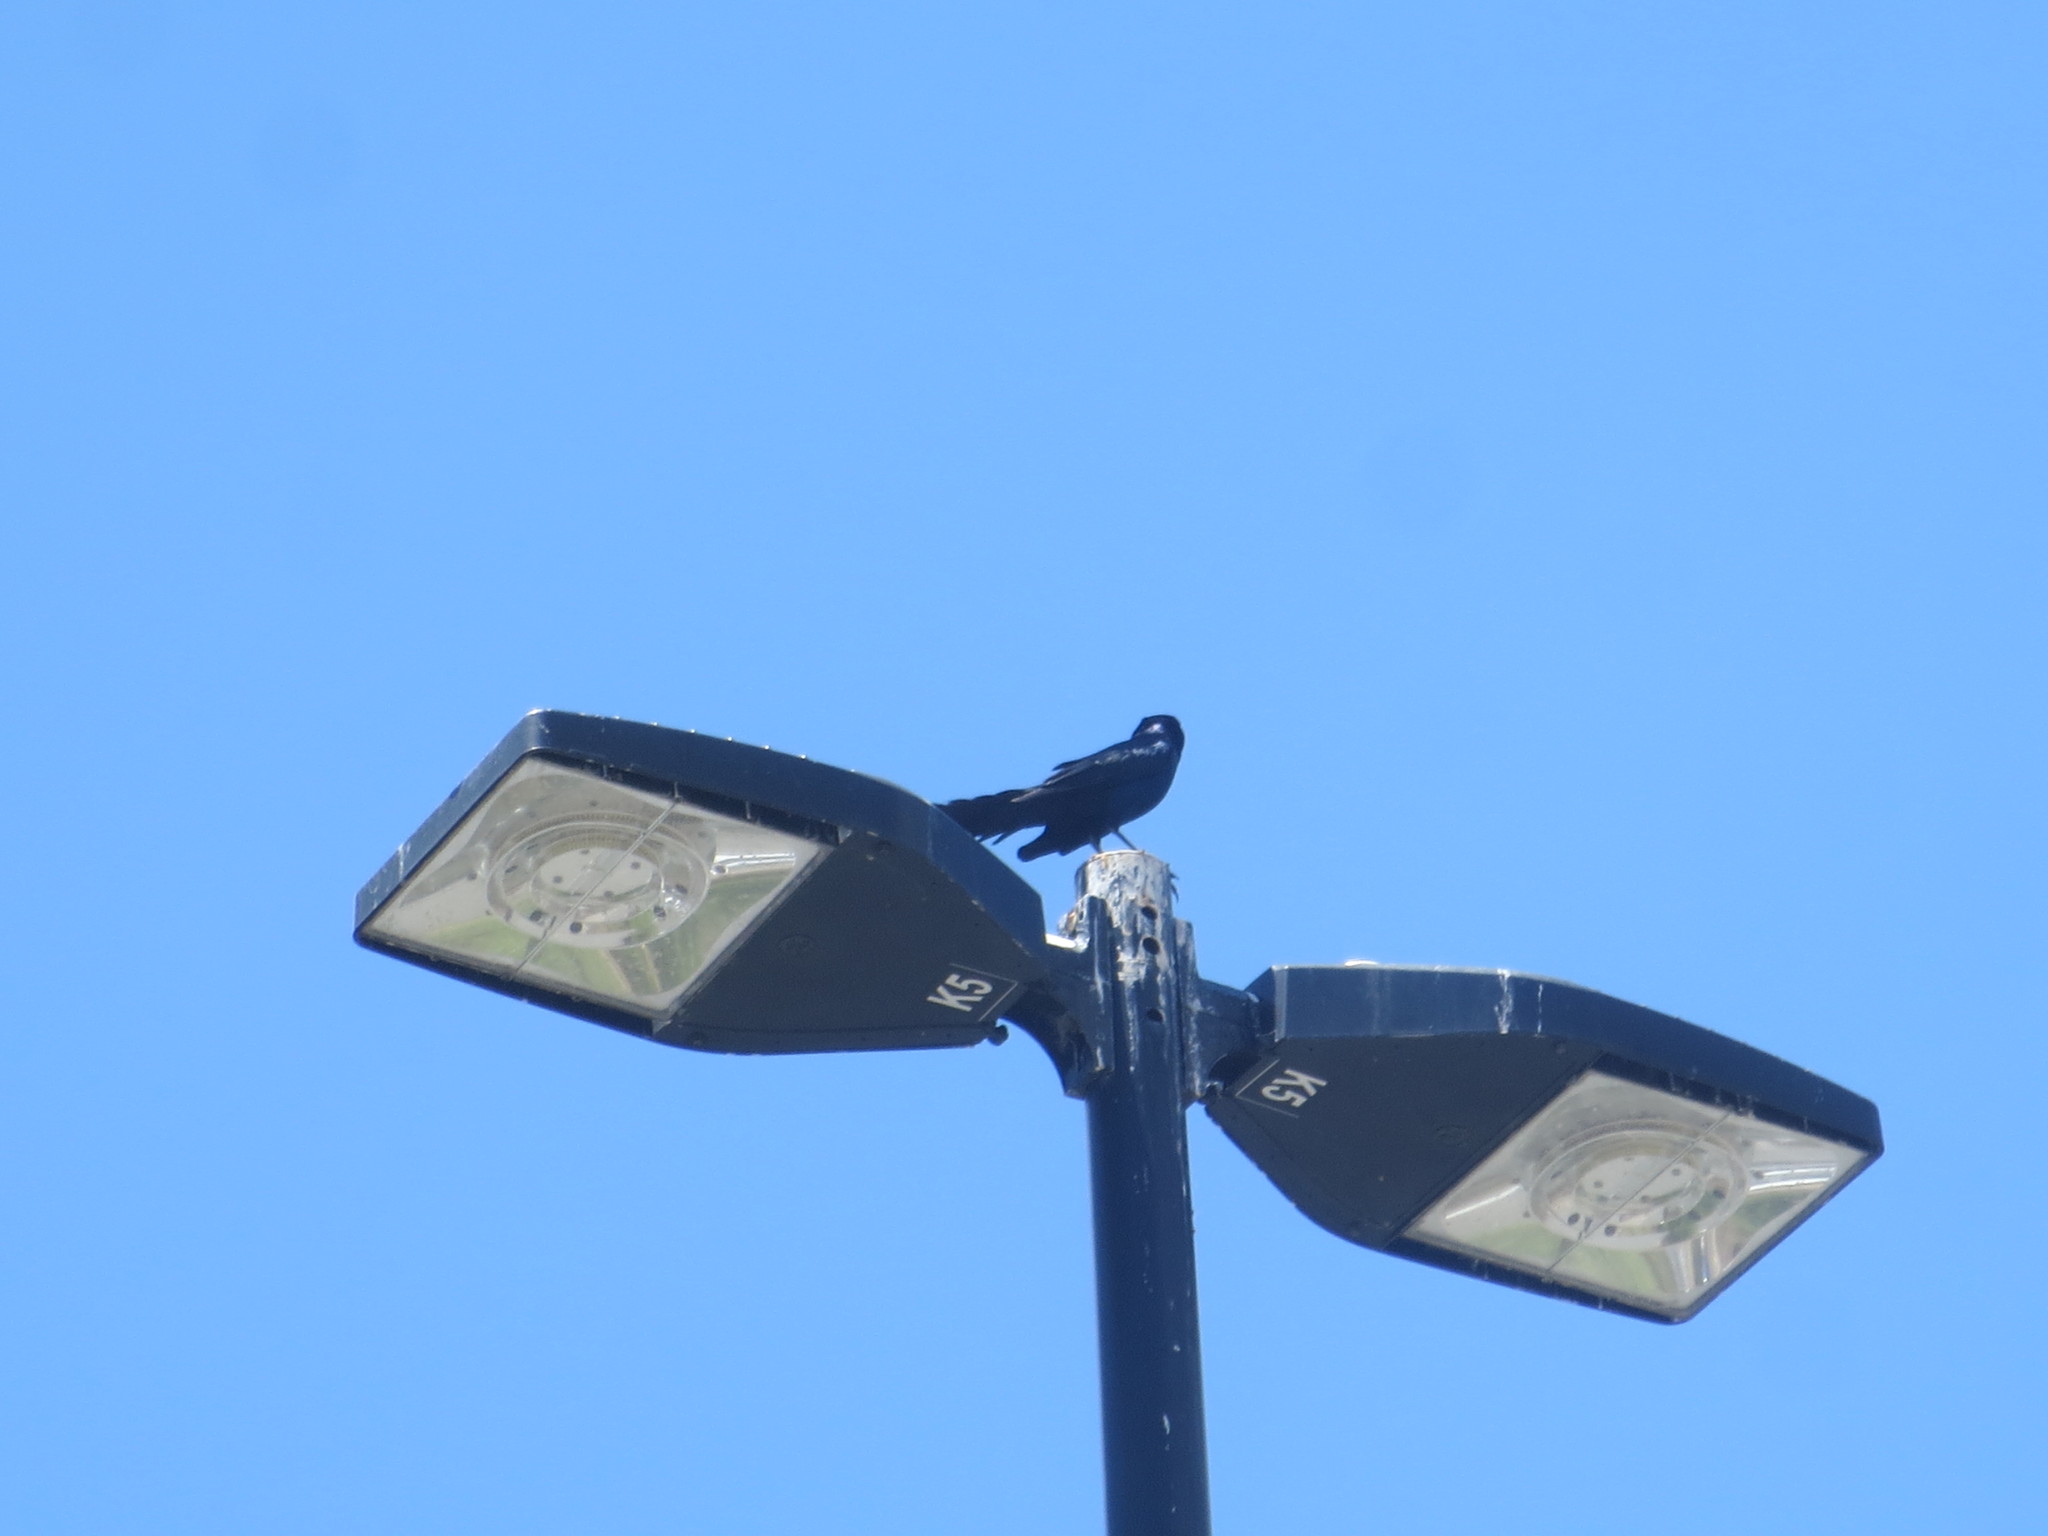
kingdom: Animalia
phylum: Chordata
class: Aves
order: Passeriformes
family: Icteridae
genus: Quiscalus
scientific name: Quiscalus major
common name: Boat-tailed grackle
